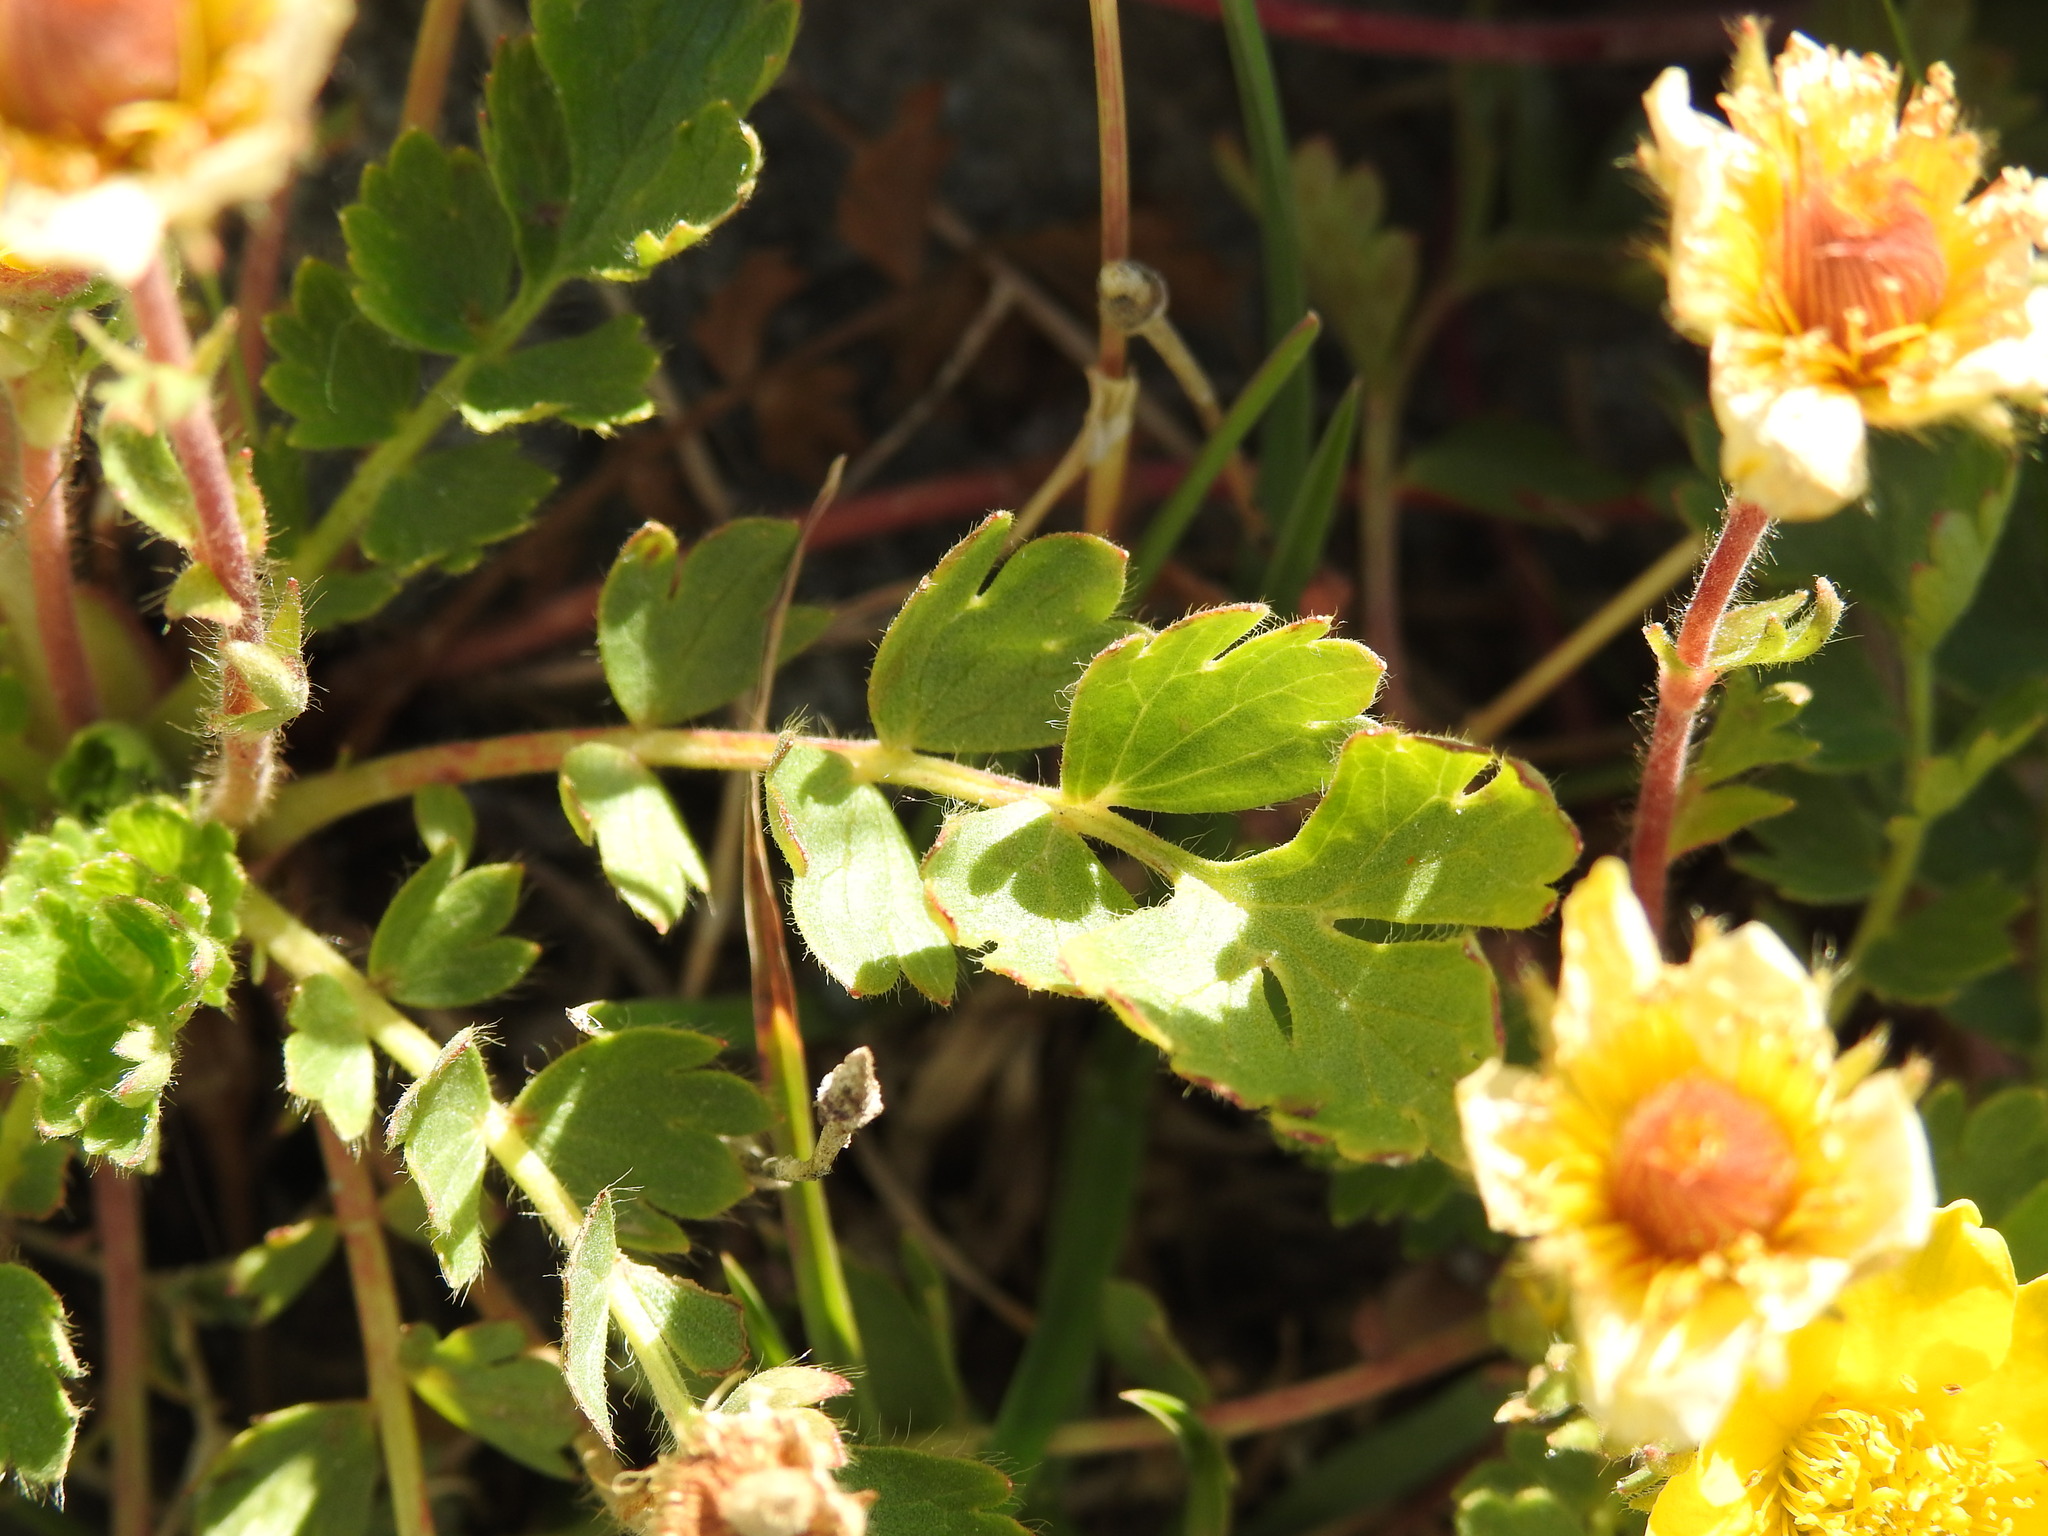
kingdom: Plantae
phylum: Tracheophyta
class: Magnoliopsida
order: Rosales
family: Rosaceae
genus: Geum
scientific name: Geum reptans
